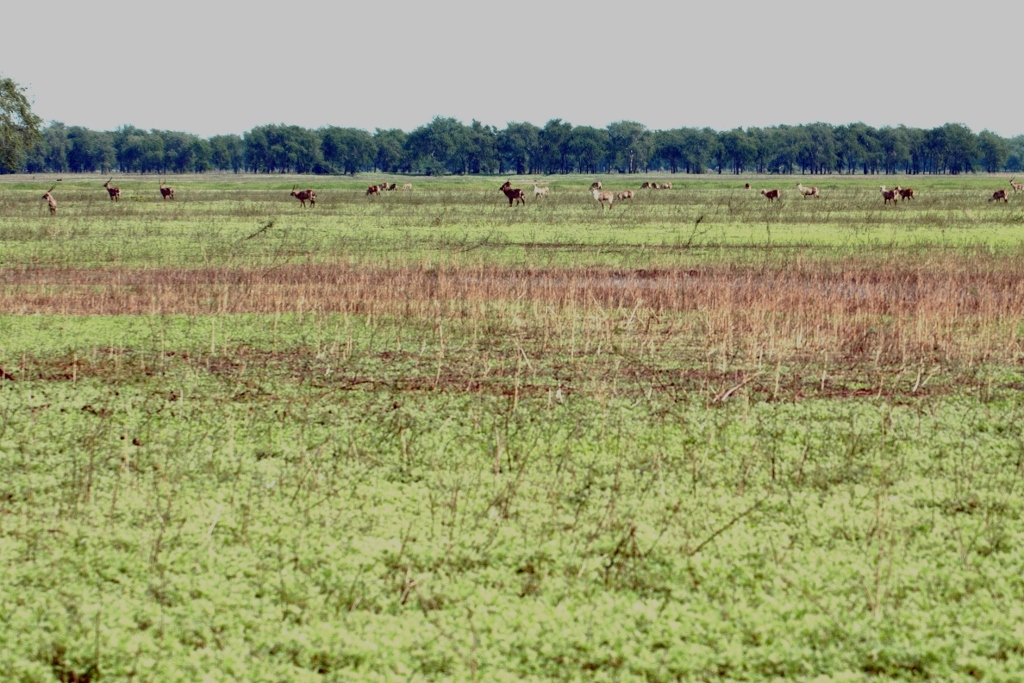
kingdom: Animalia
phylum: Chordata
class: Mammalia
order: Artiodactyla
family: Bovidae
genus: Kobus
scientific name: Kobus ellipsiprymnus
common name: Waterbuck
